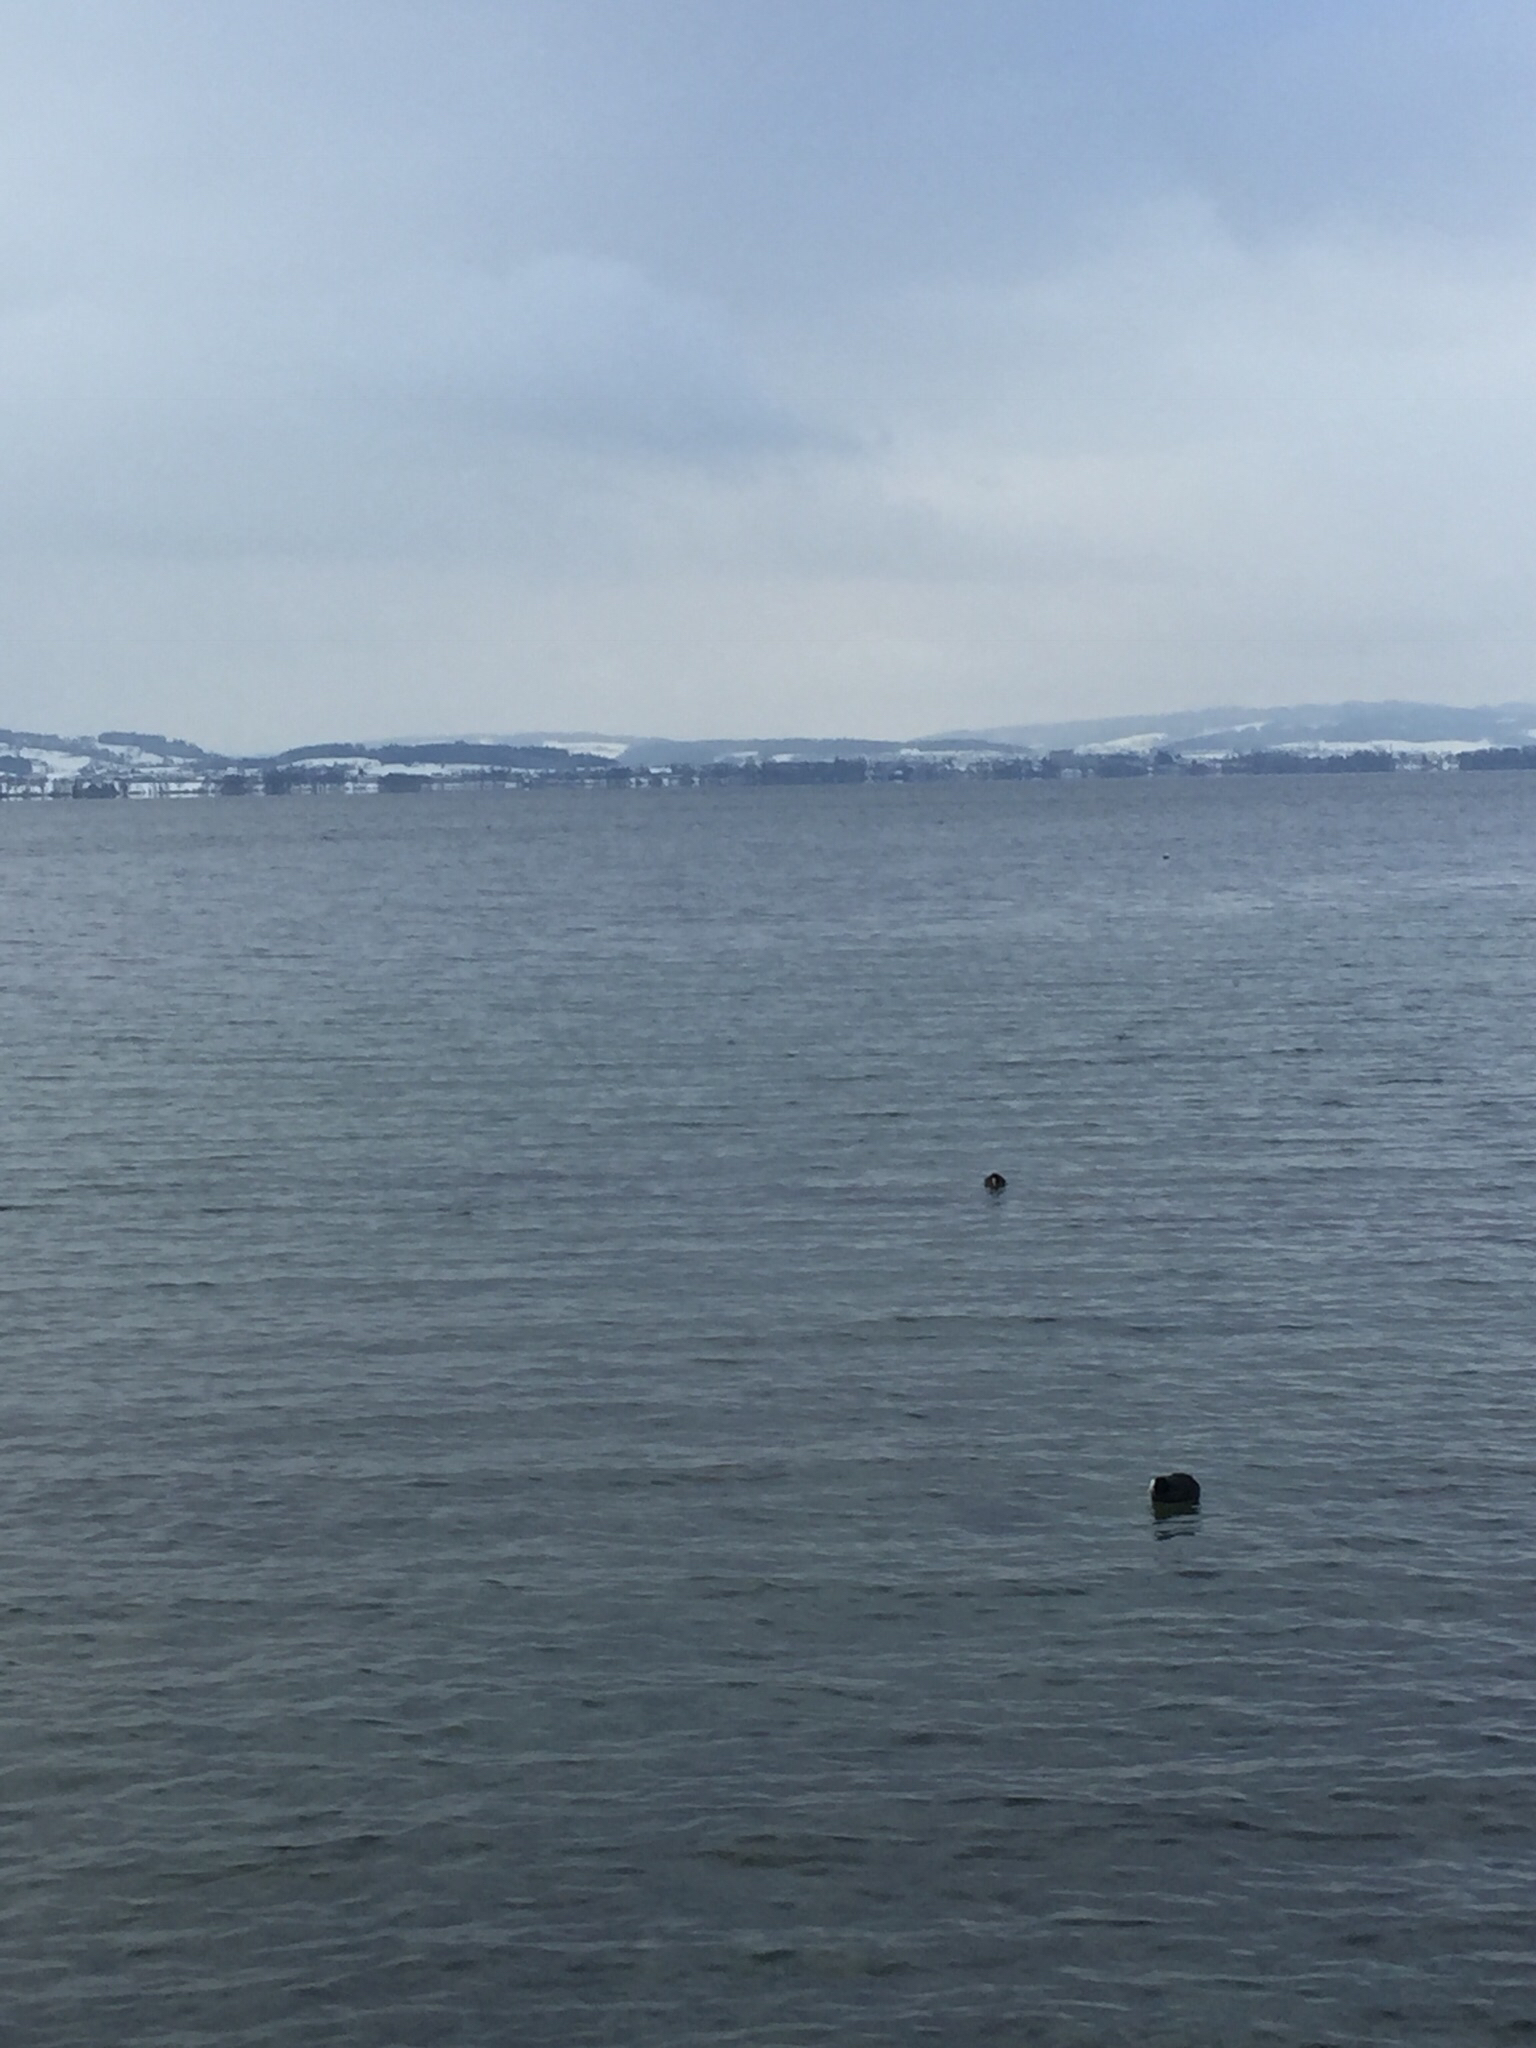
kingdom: Animalia
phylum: Chordata
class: Aves
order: Gruiformes
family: Rallidae
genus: Fulica
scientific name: Fulica atra
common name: Eurasian coot
